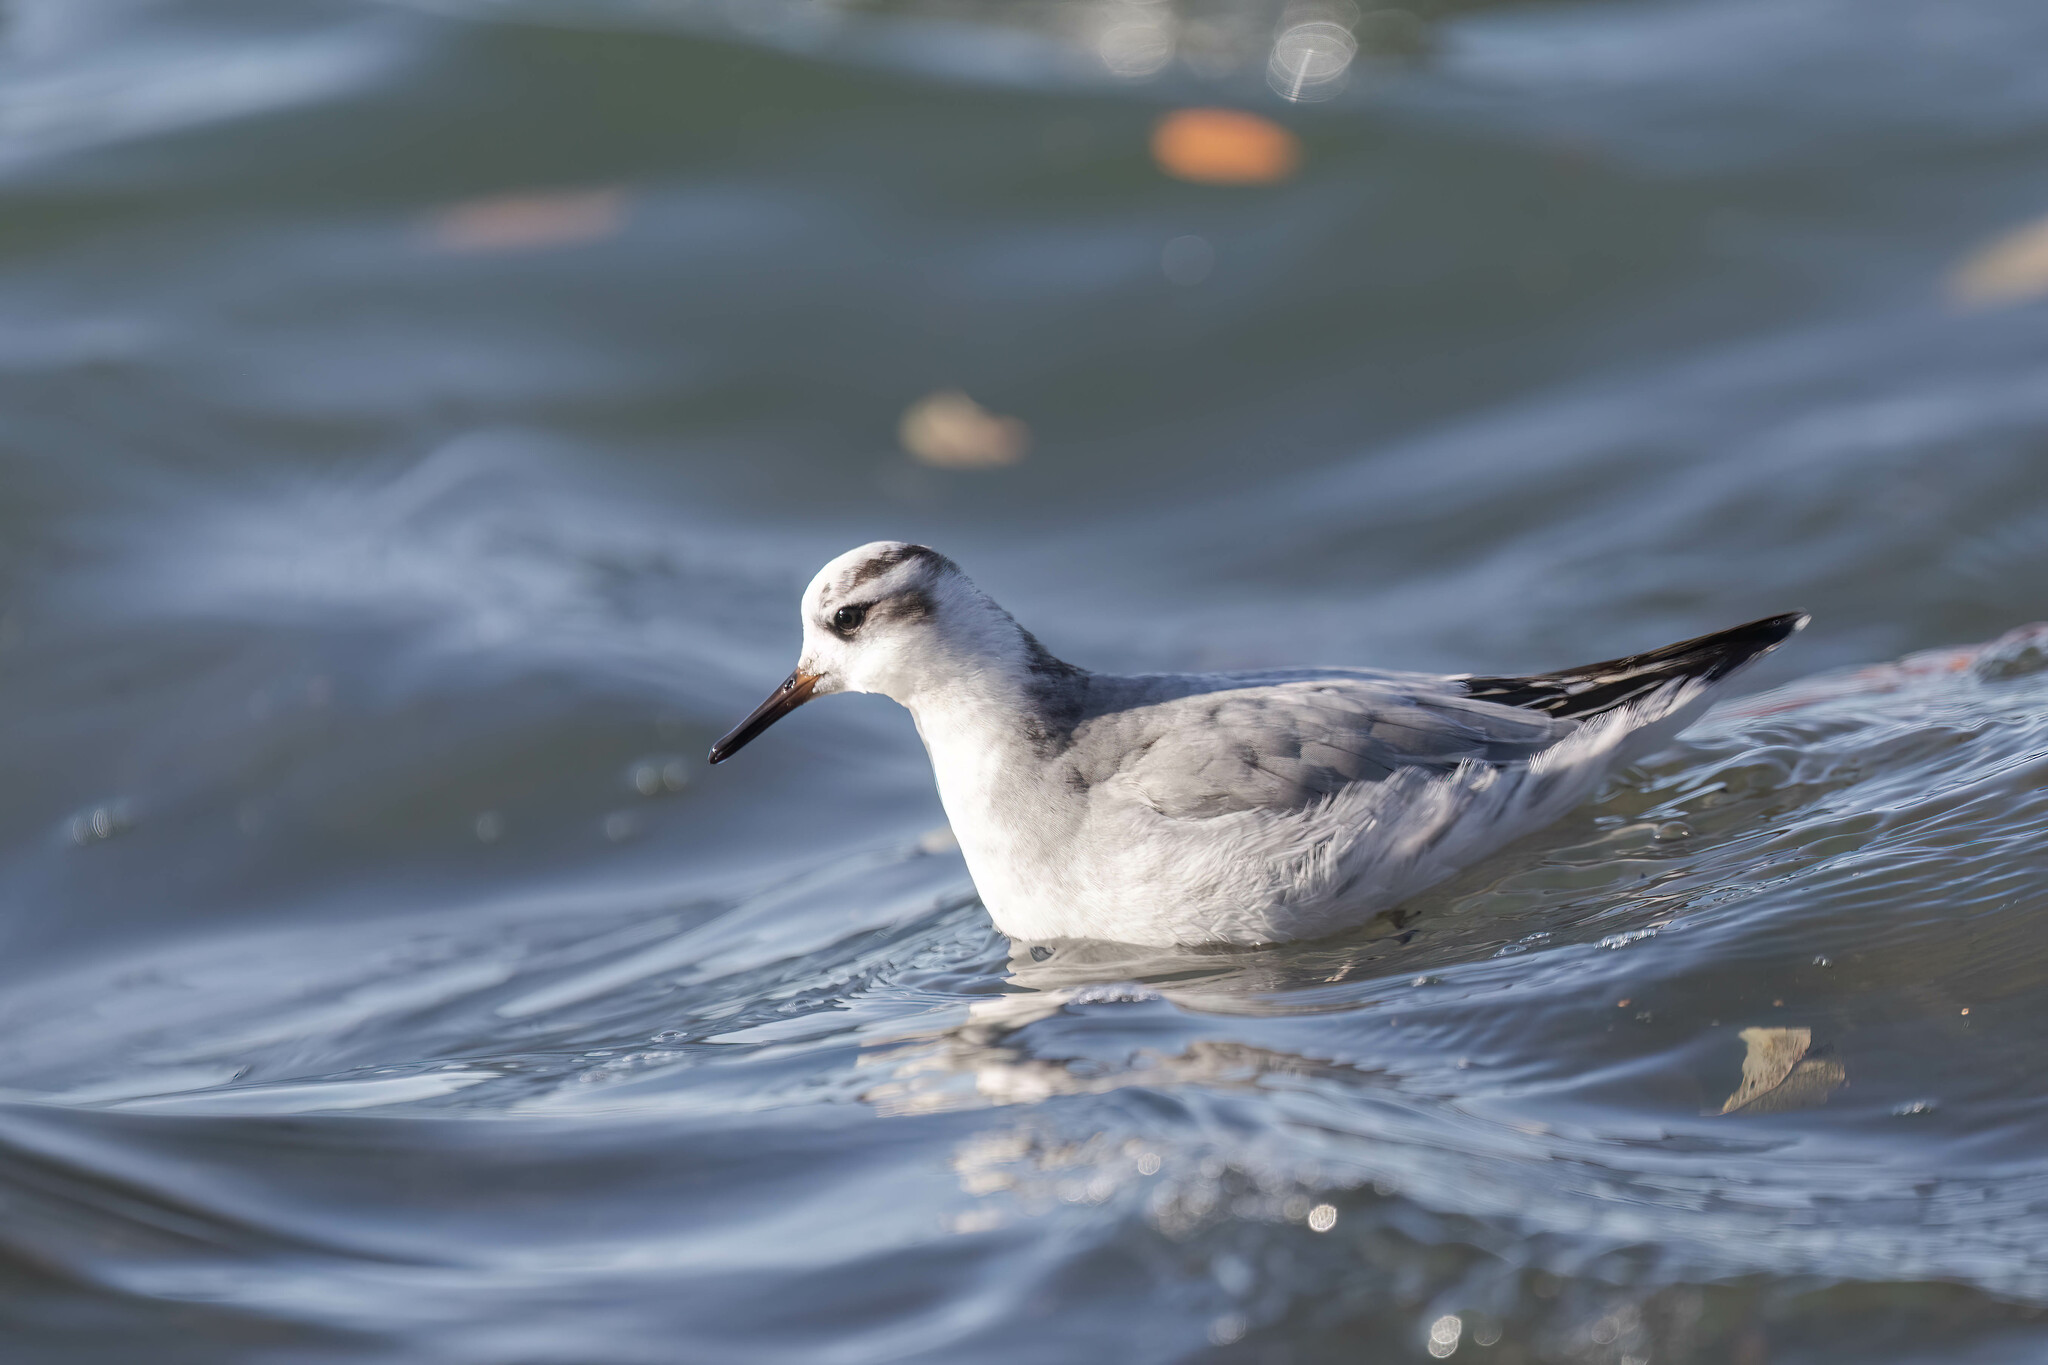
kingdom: Animalia
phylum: Chordata
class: Aves
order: Charadriiformes
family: Scolopacidae
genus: Phalaropus
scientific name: Phalaropus fulicarius
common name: Red phalarope
